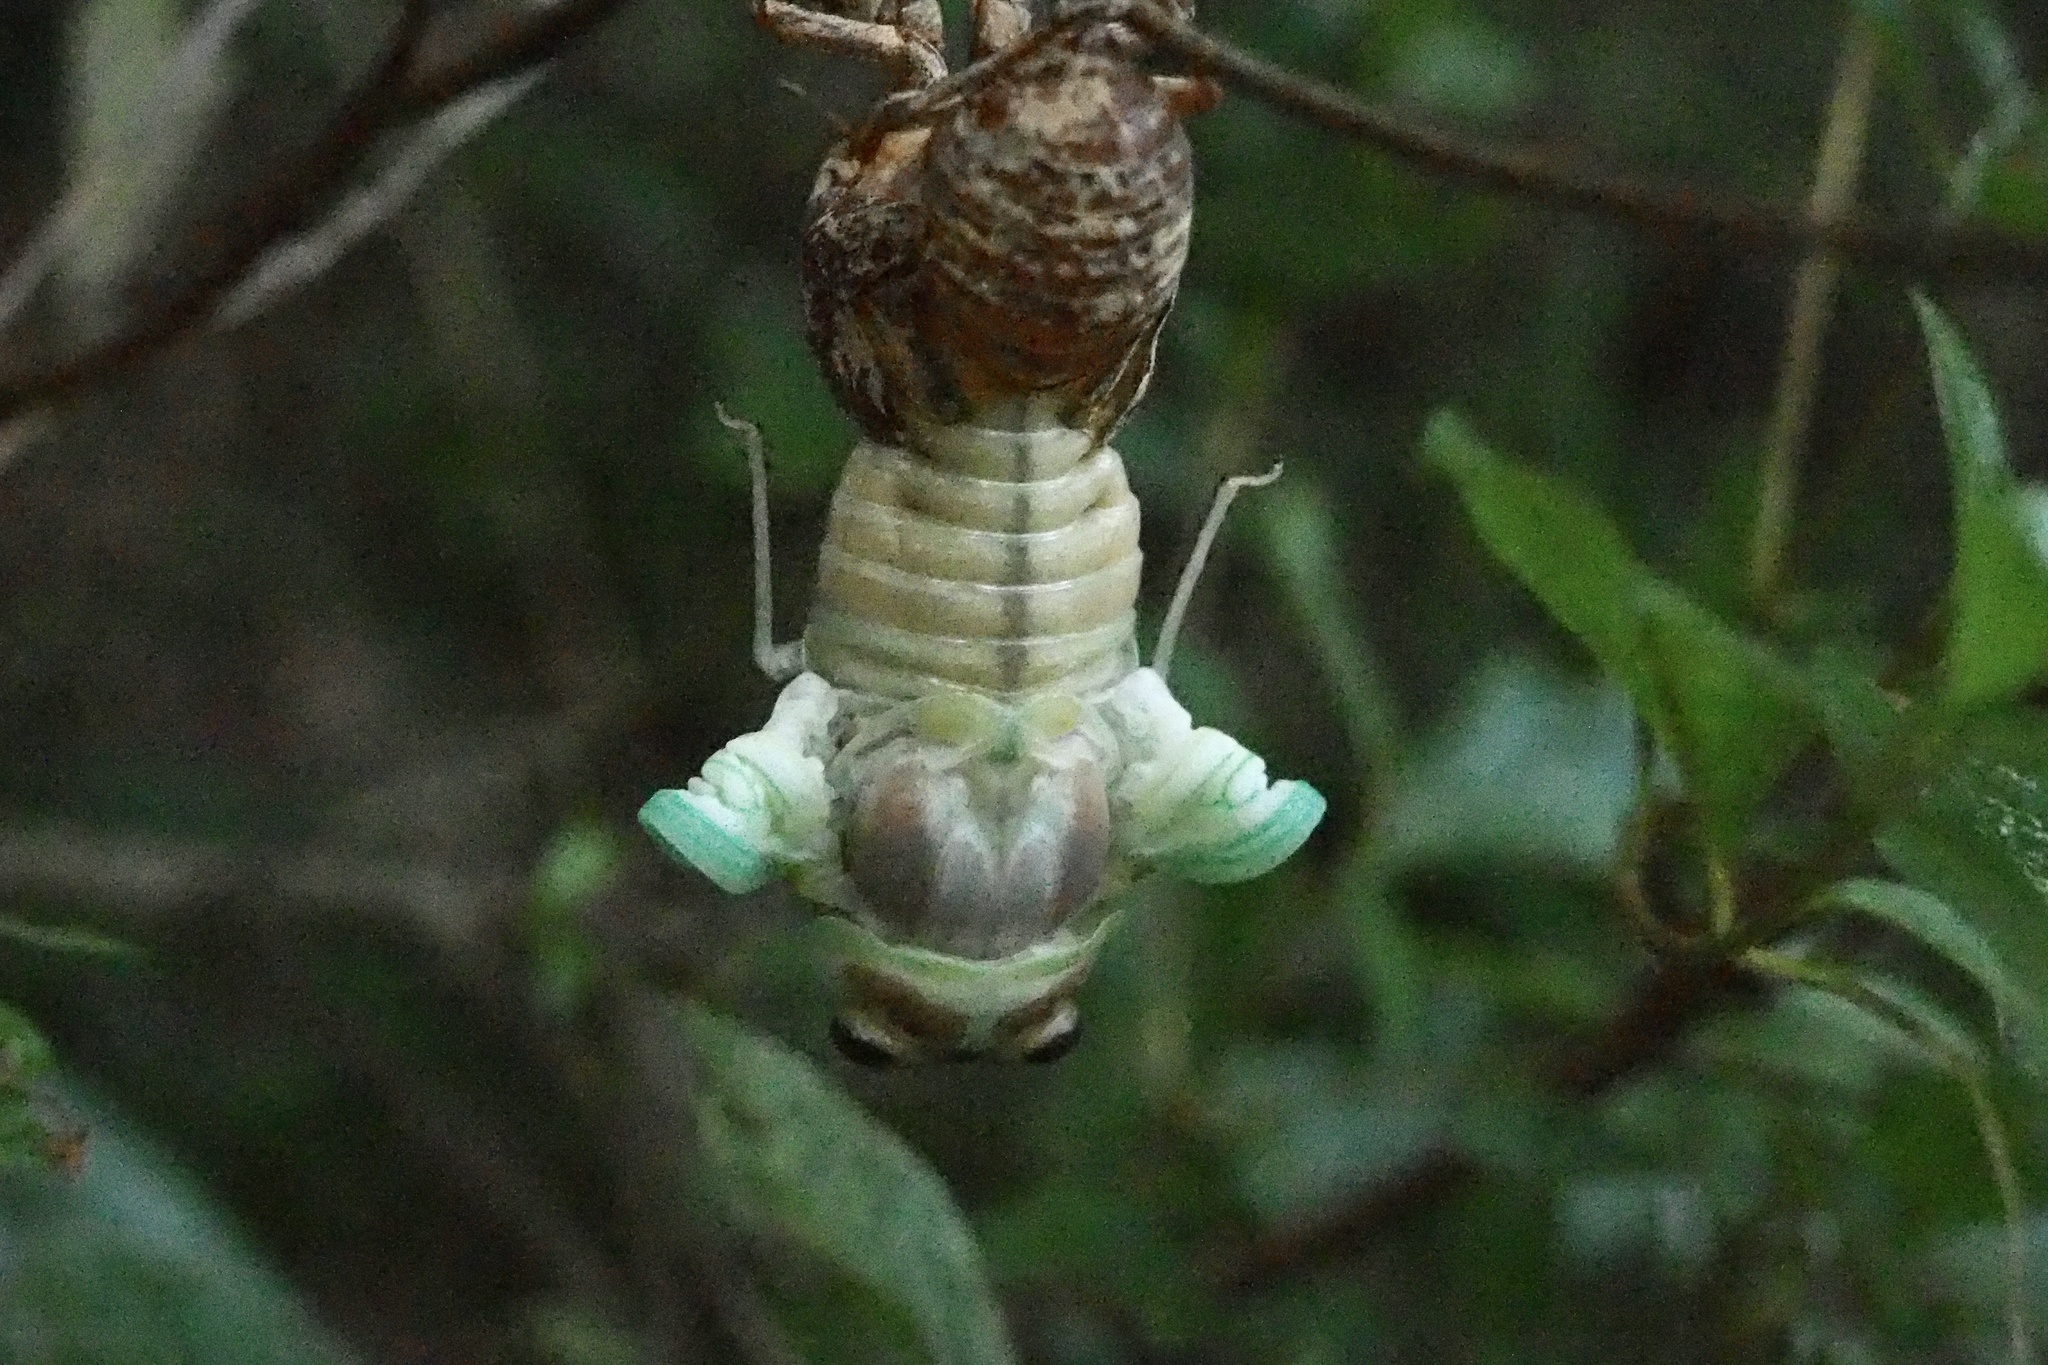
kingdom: Animalia
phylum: Arthropoda
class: Insecta
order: Hemiptera
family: Cicadidae
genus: Graptopsaltria
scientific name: Graptopsaltria nigrofuscata
